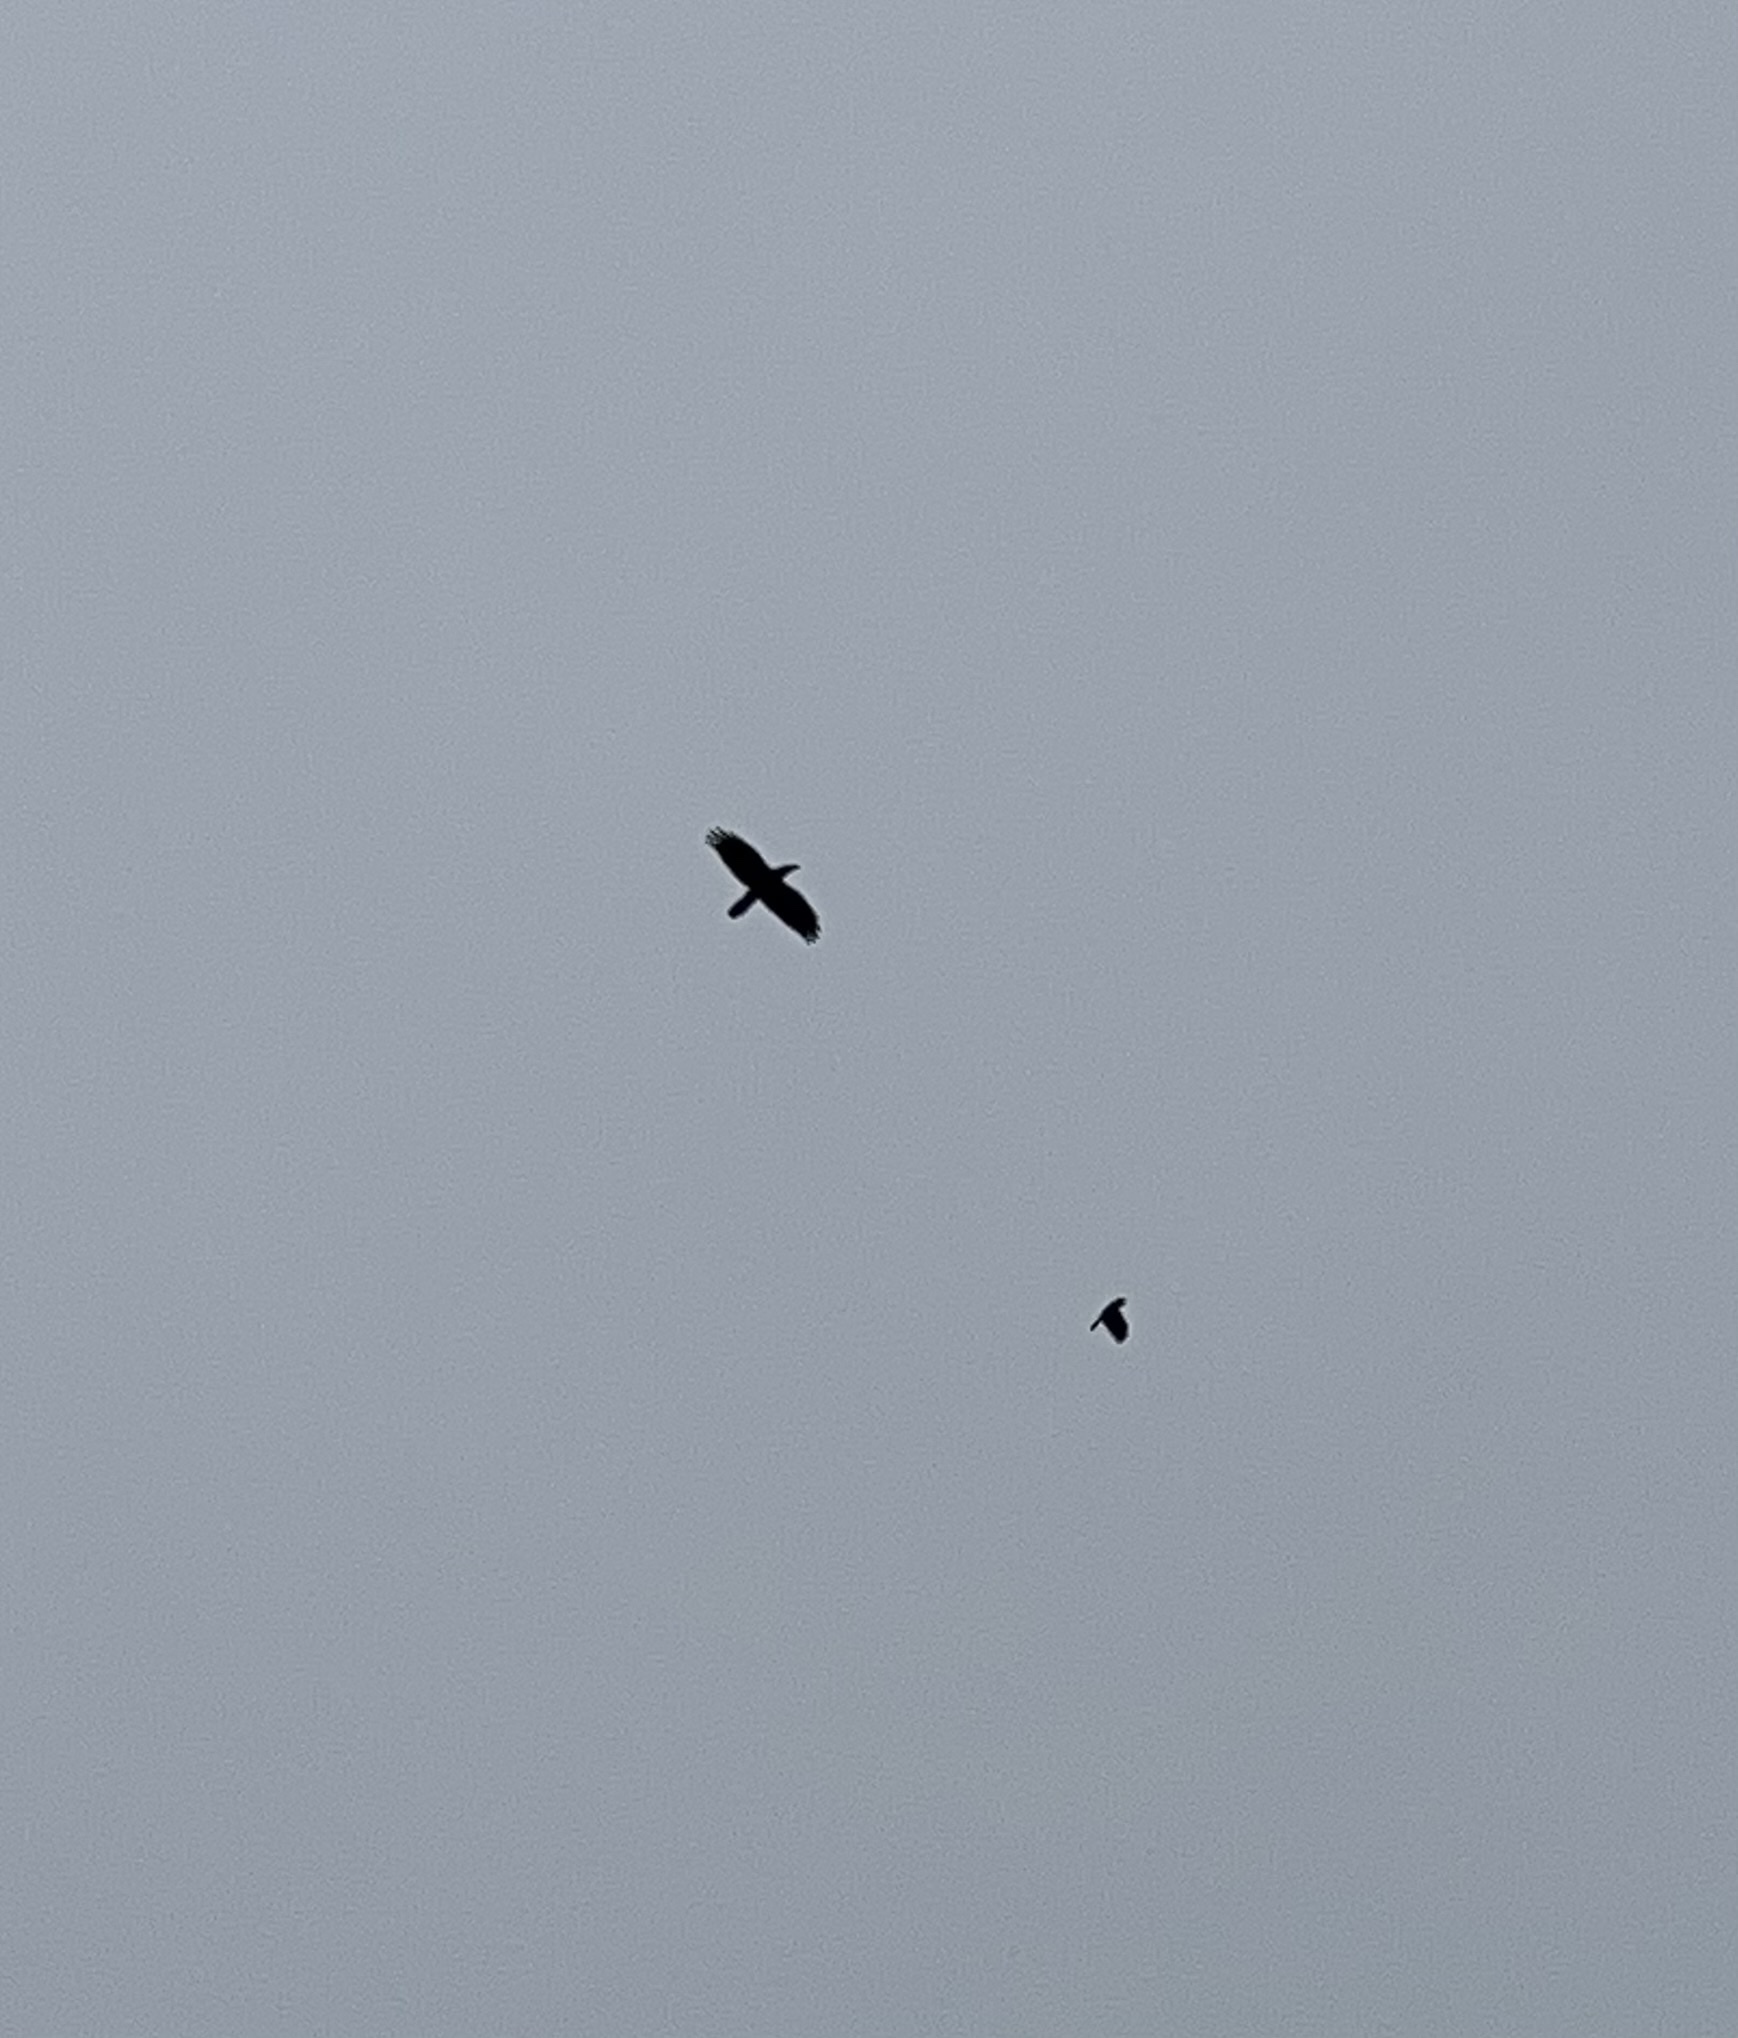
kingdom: Animalia
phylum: Chordata
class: Aves
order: Passeriformes
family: Corvidae
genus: Corvus
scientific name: Corvus corax
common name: Common raven
